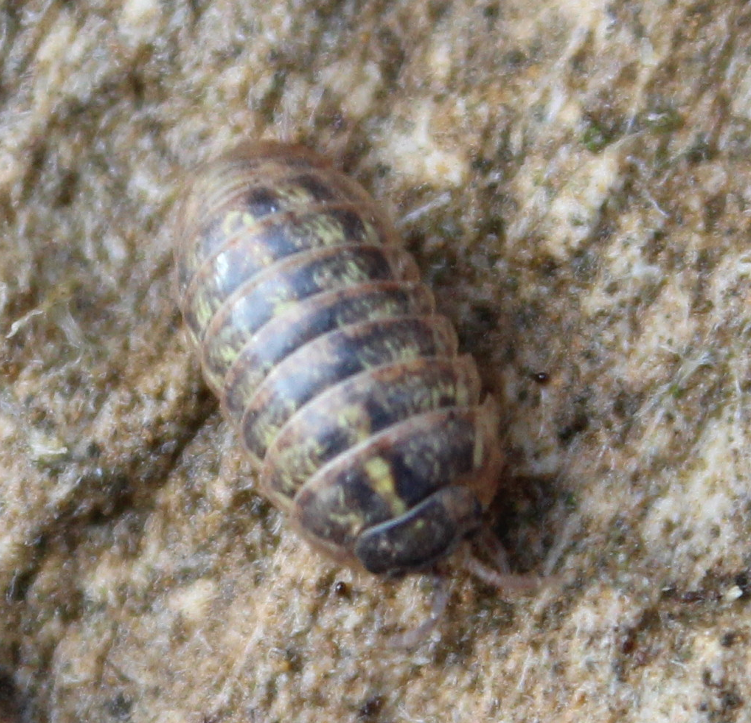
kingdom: Animalia
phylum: Arthropoda
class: Malacostraca
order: Isopoda
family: Armadillidiidae
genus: Armadillidium
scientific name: Armadillidium vulgare
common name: Common pill woodlouse
